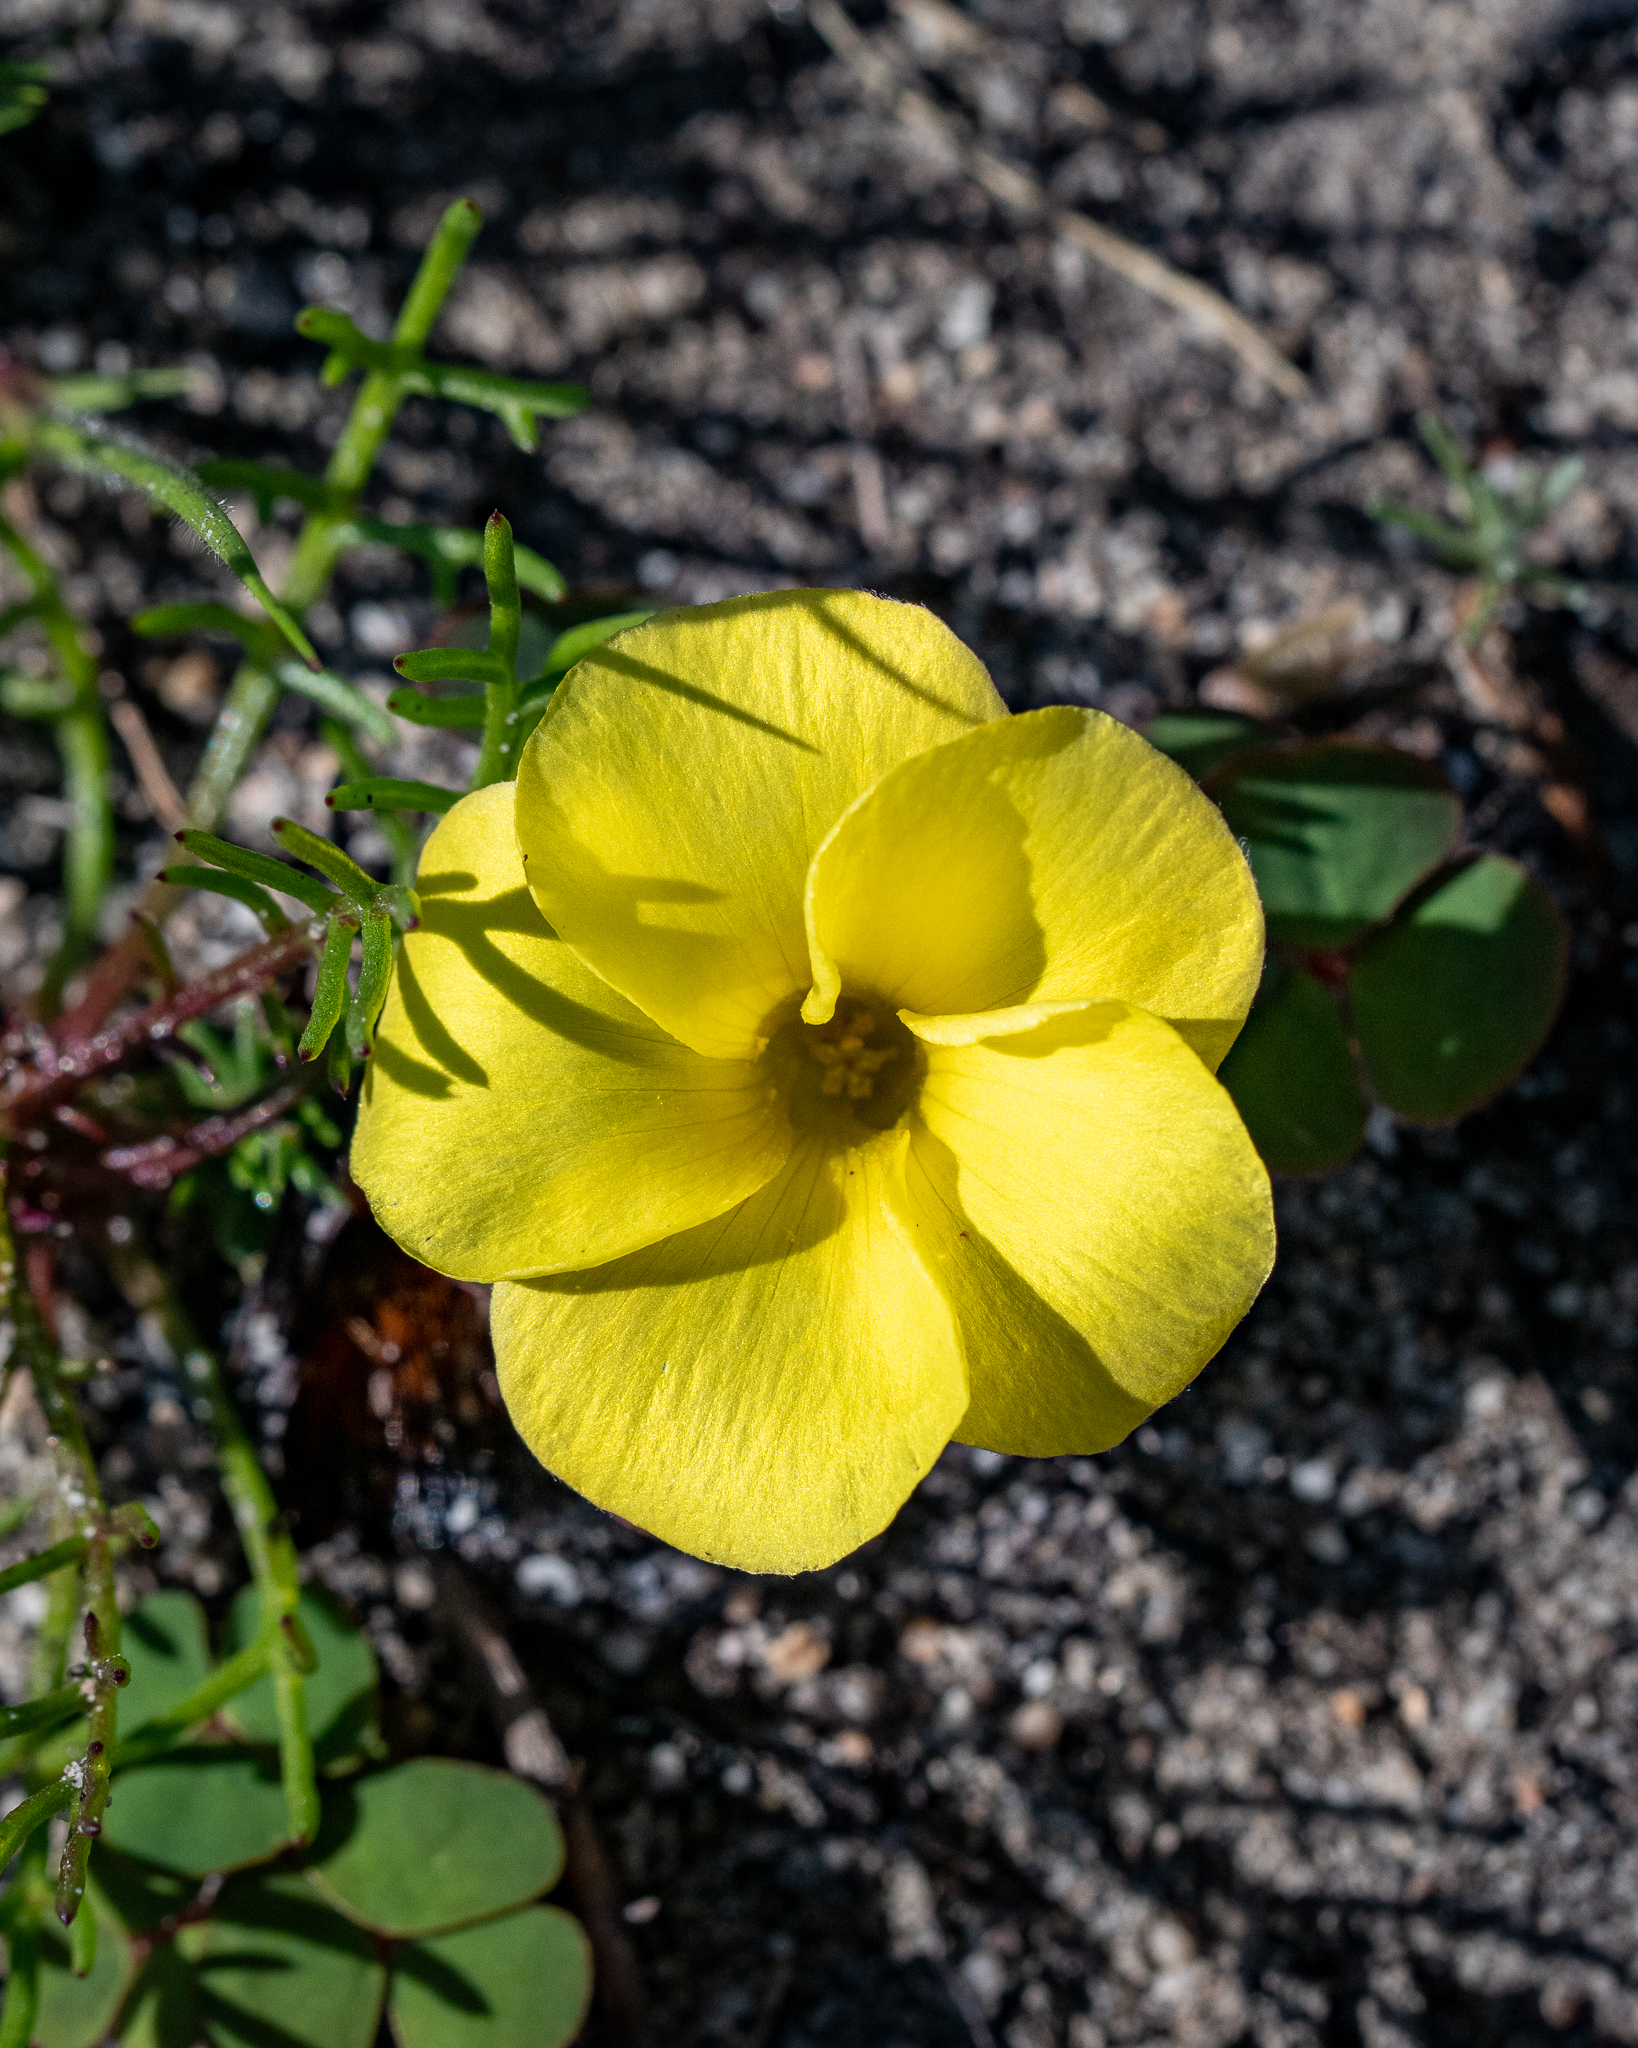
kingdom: Plantae
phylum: Tracheophyta
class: Magnoliopsida
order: Oxalidales
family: Oxalidaceae
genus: Oxalis
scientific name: Oxalis luteola
